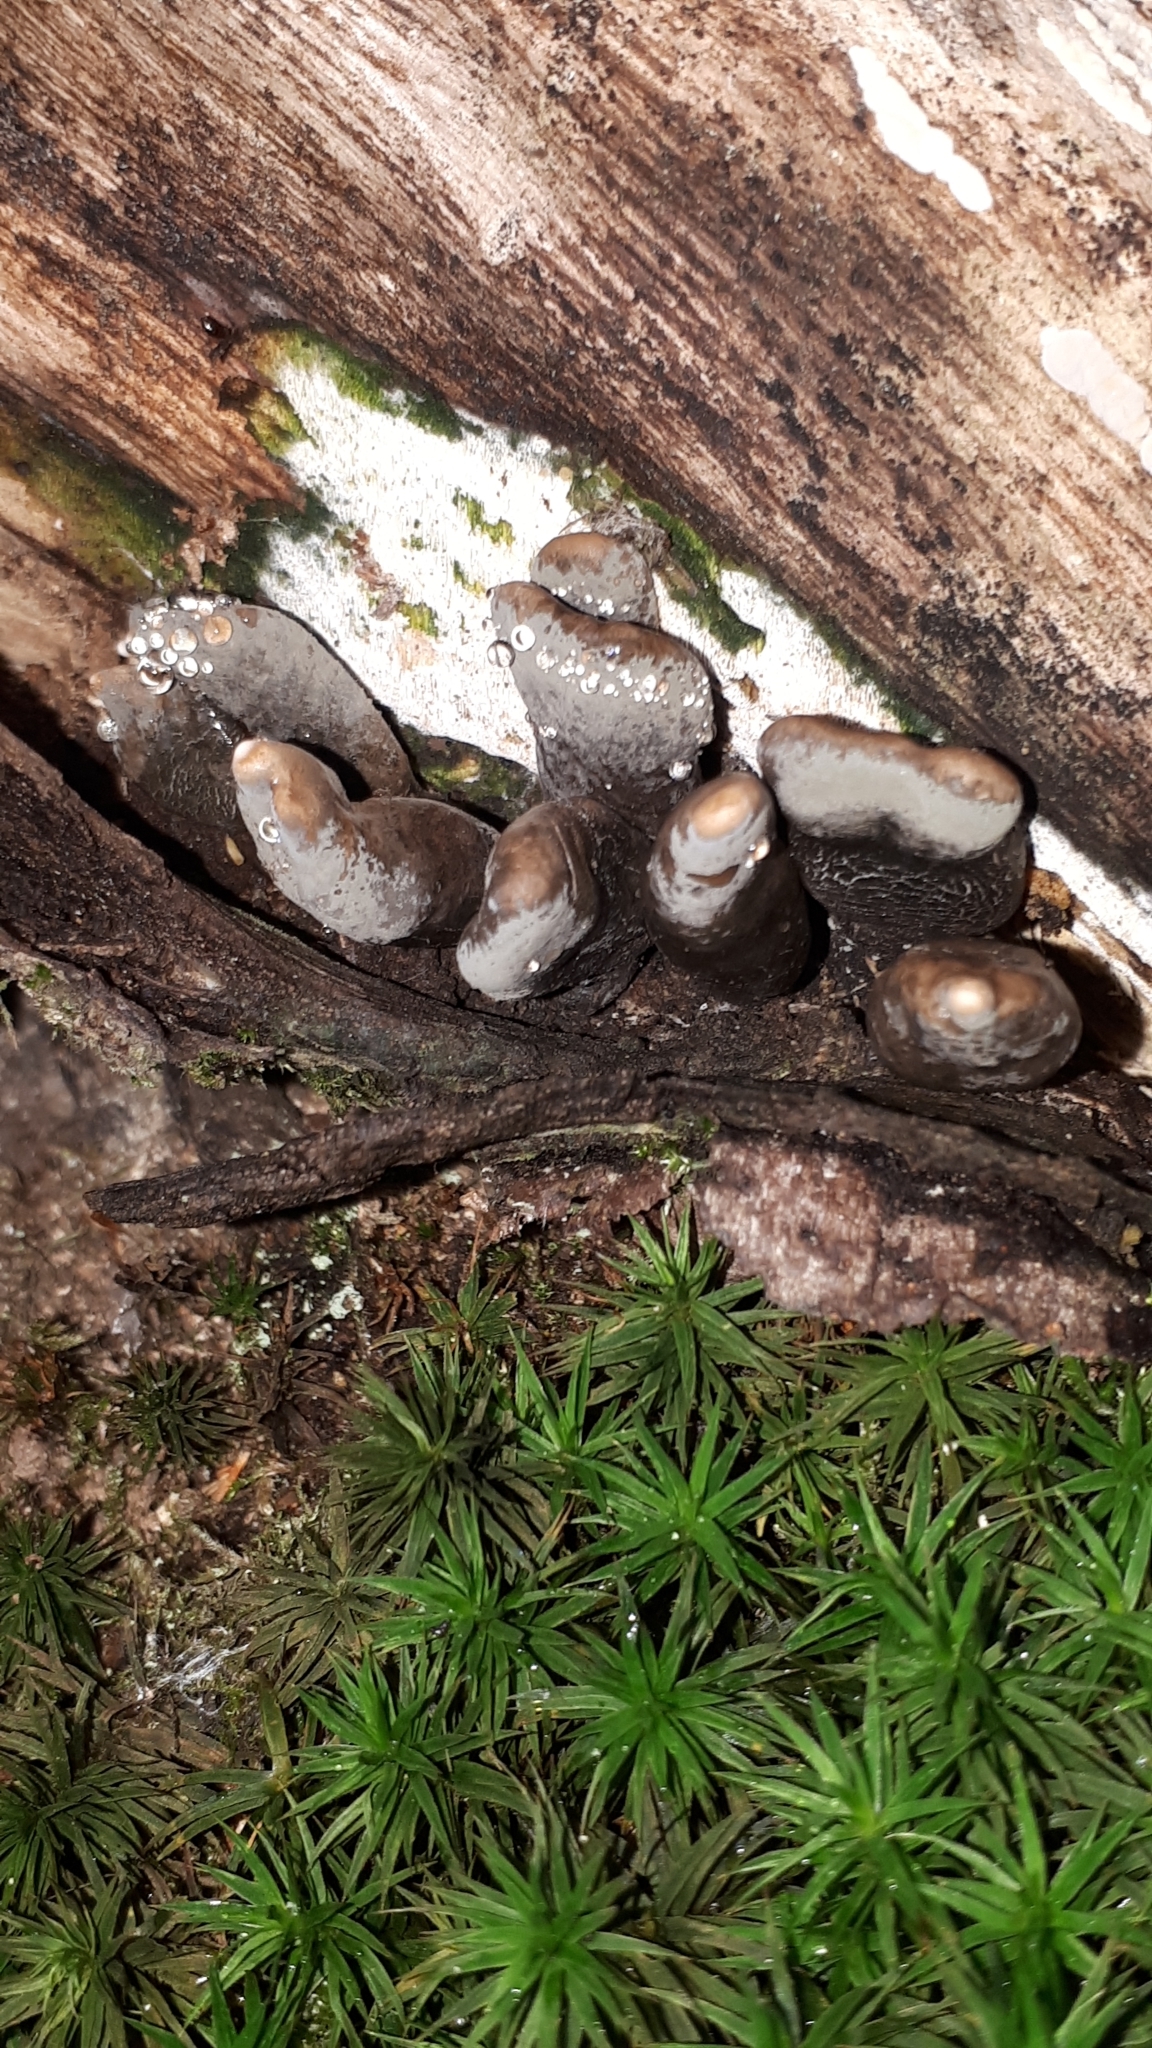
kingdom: Fungi
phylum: Ascomycota
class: Sordariomycetes
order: Xylariales
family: Xylariaceae
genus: Xylaria
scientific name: Xylaria polymorpha
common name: Dead man's fingers
